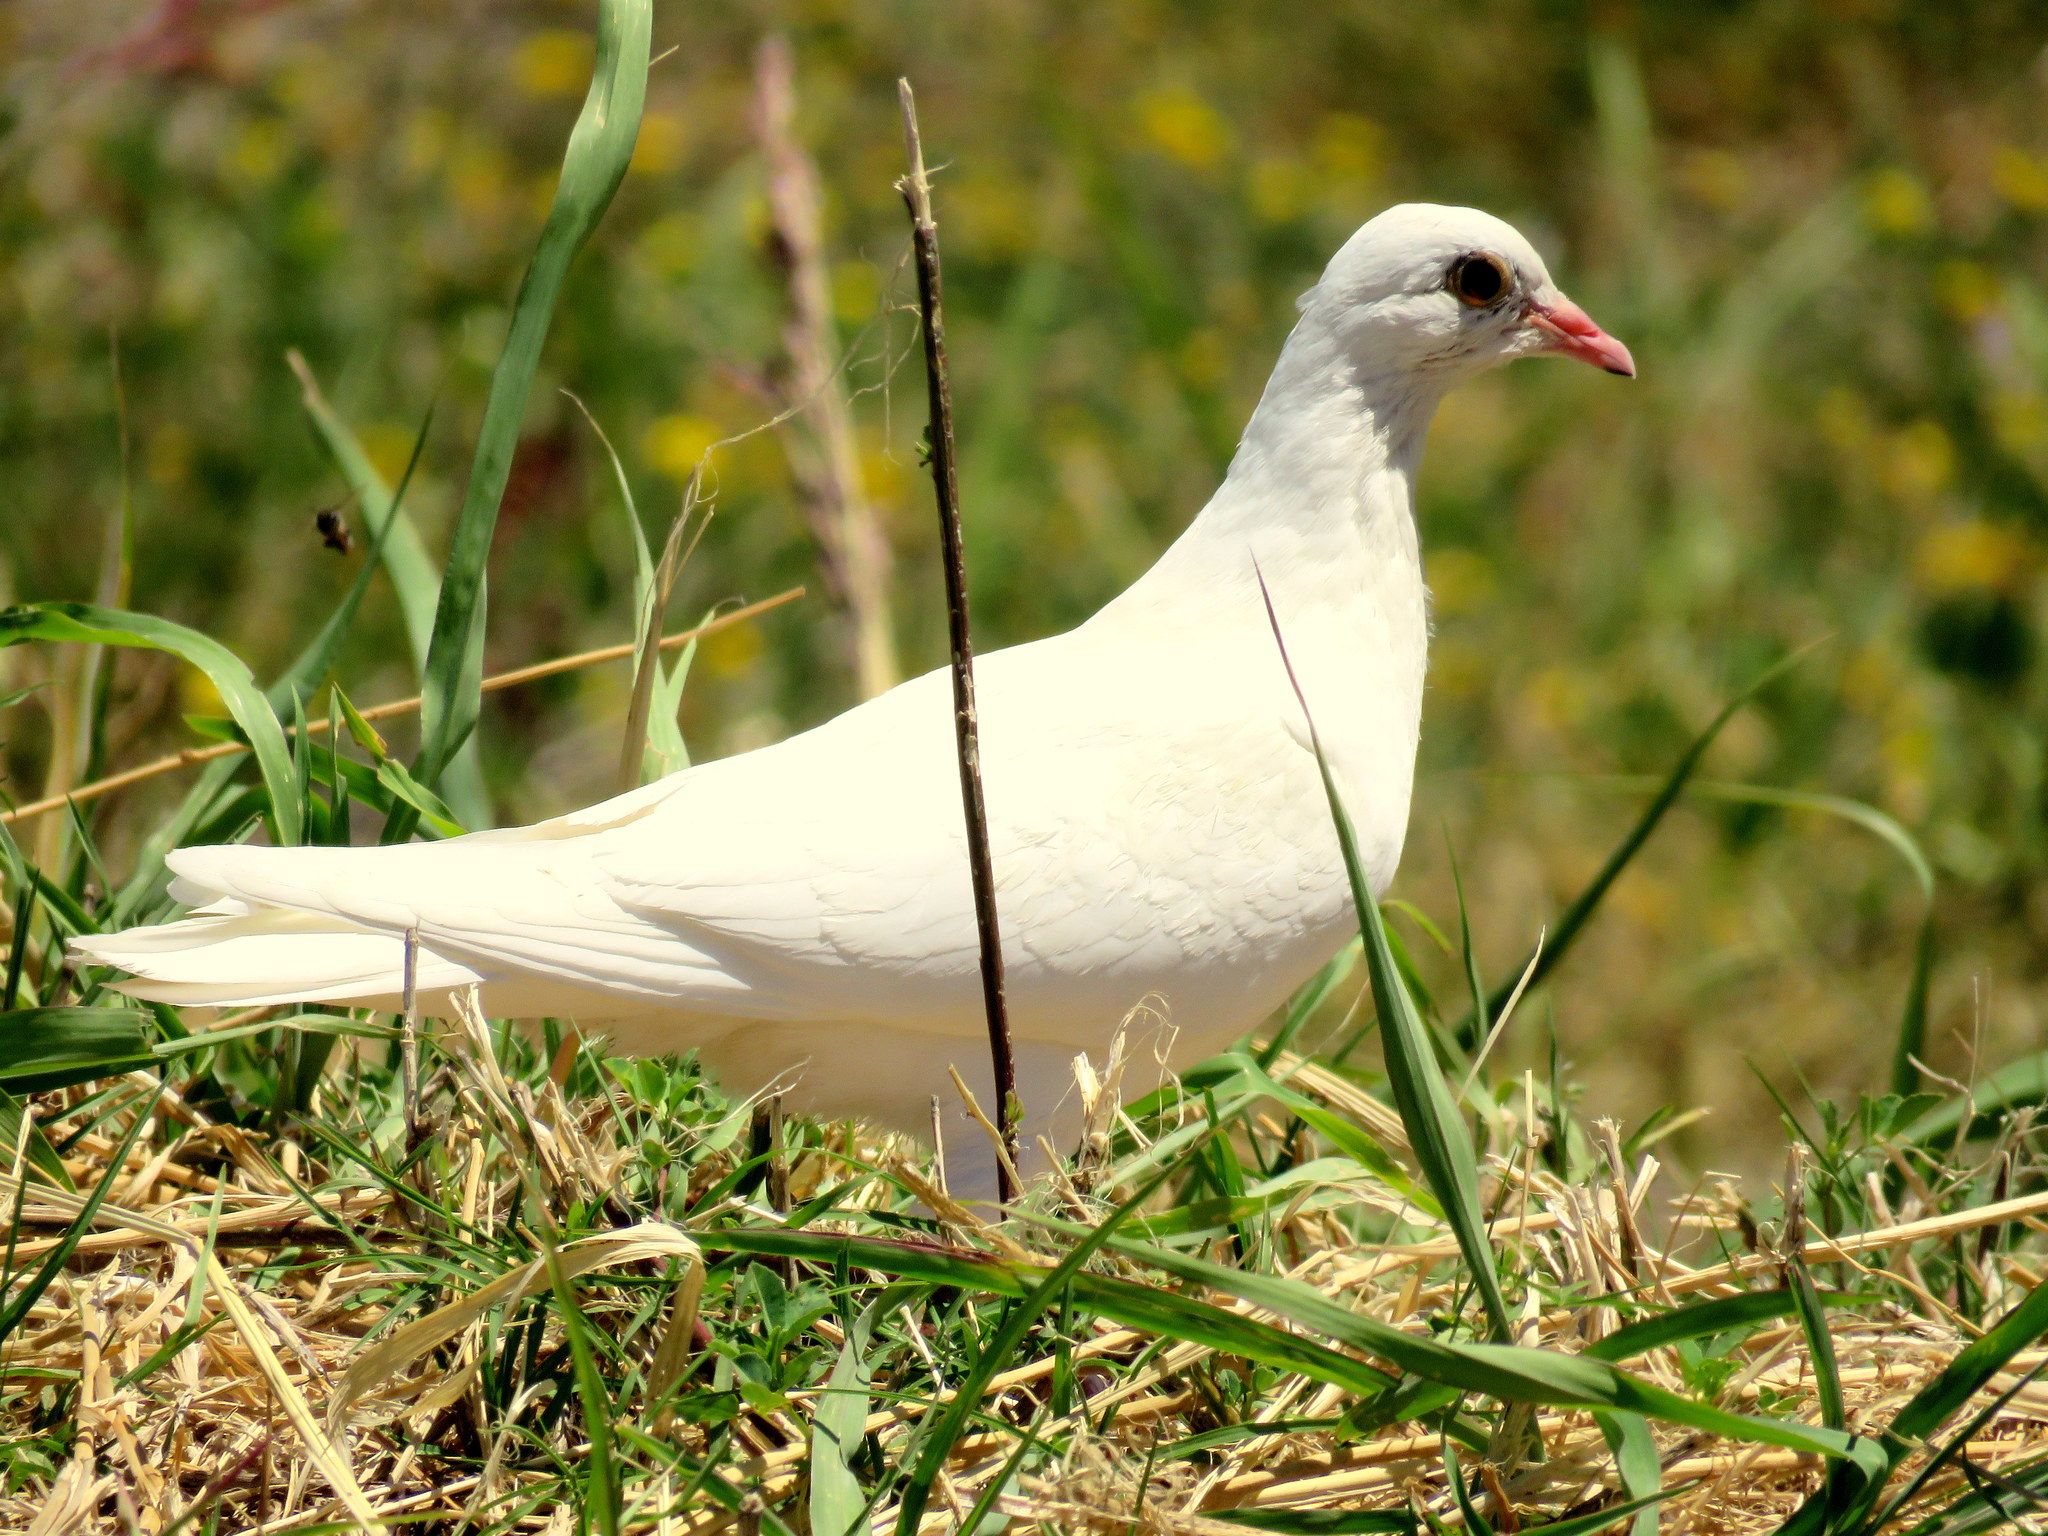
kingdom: Animalia
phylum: Chordata
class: Aves
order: Columbiformes
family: Columbidae
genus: Columba
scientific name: Columba livia
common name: Rock pigeon
